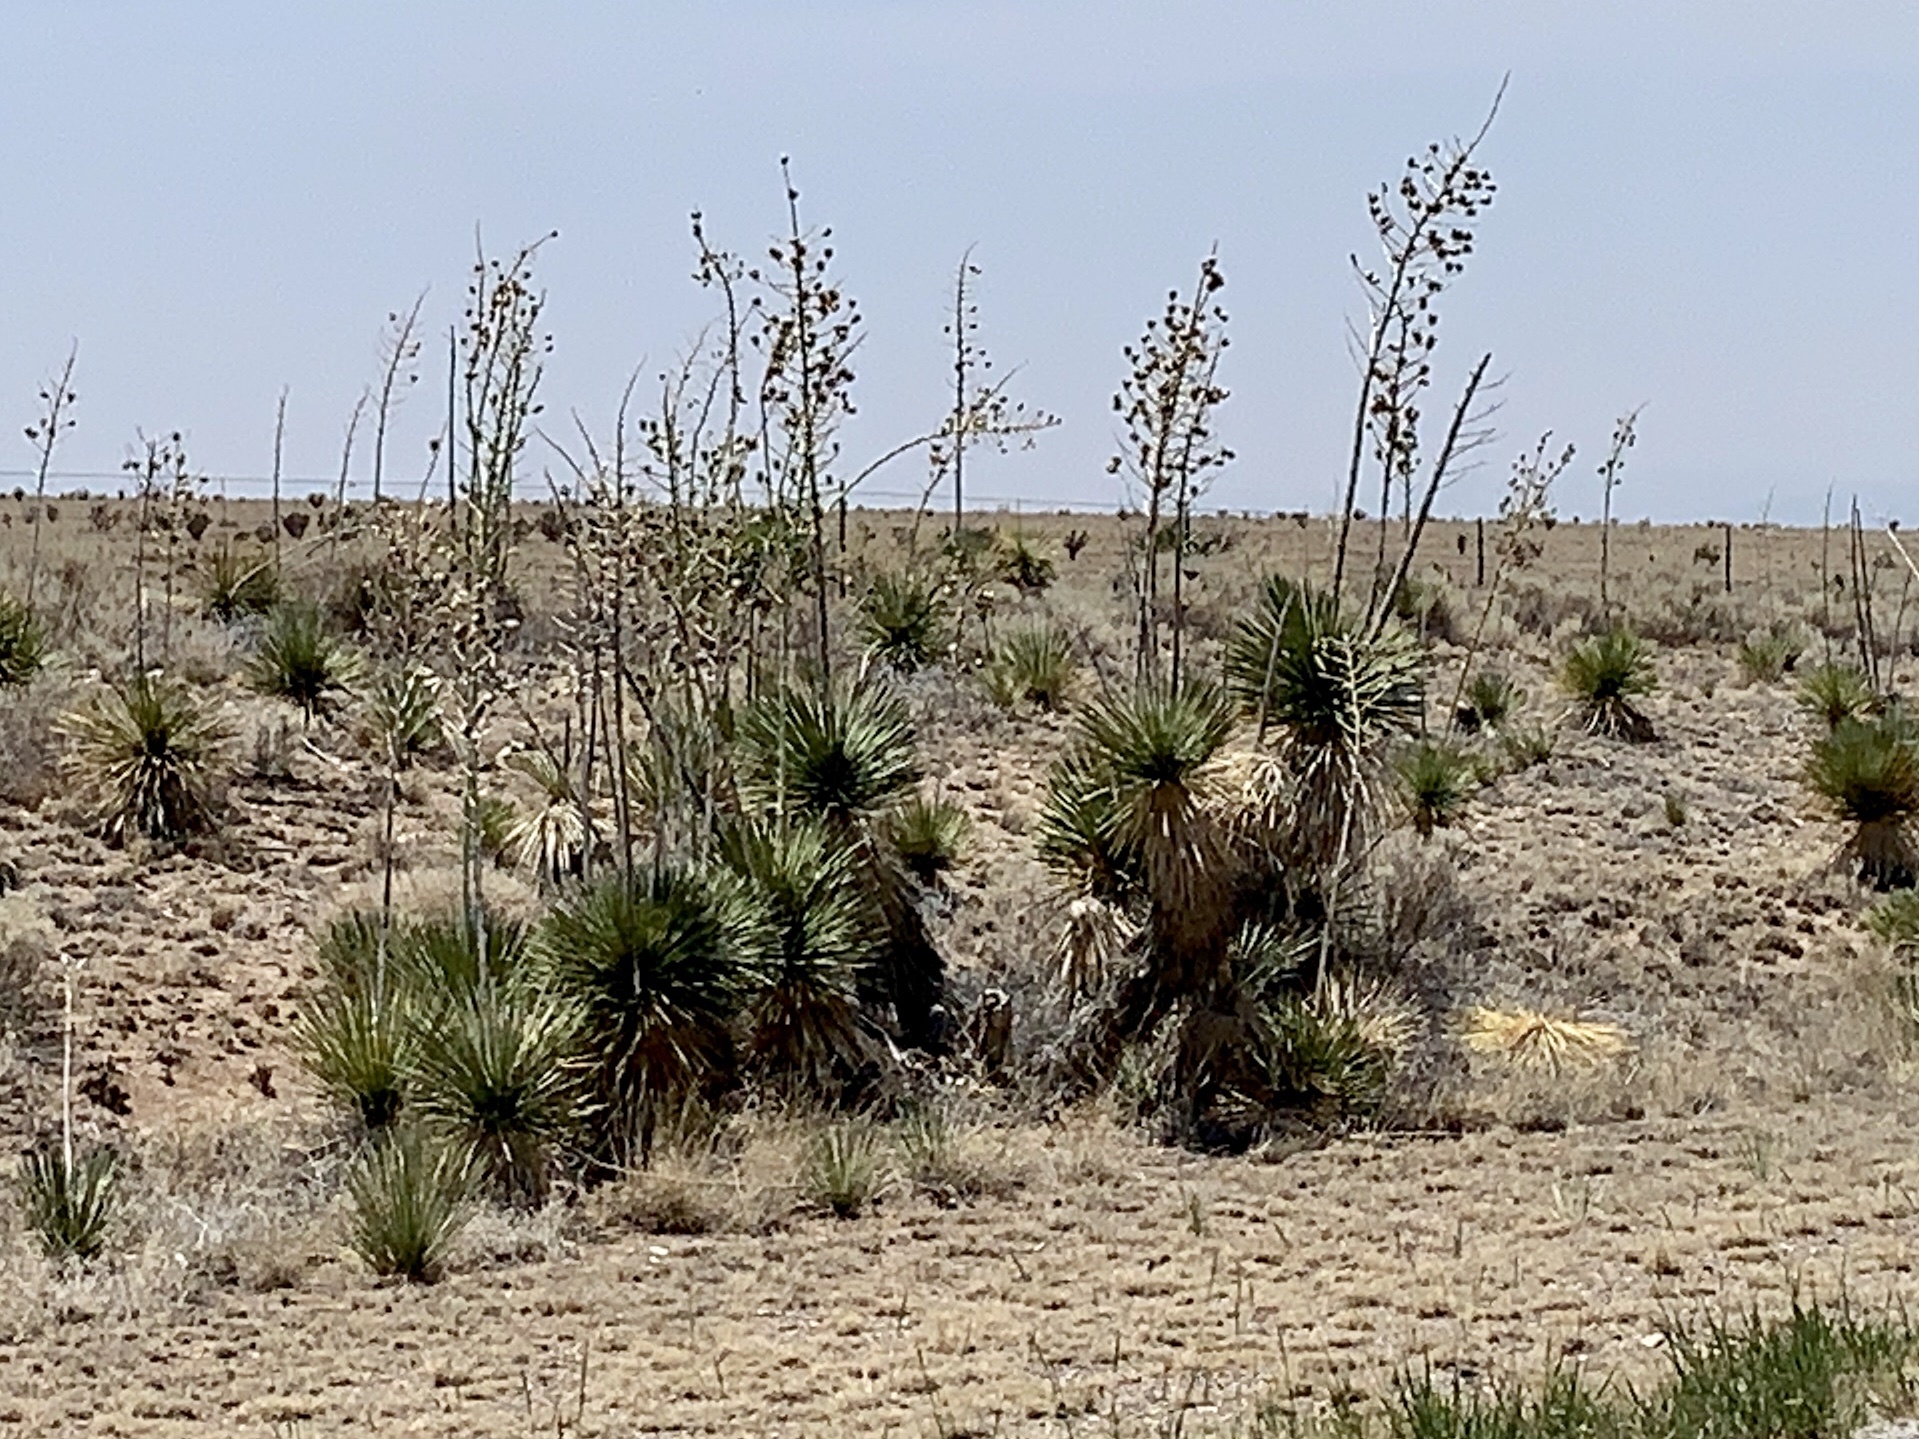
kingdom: Plantae
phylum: Tracheophyta
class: Liliopsida
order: Asparagales
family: Asparagaceae
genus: Yucca
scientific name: Yucca elata
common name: Palmella
